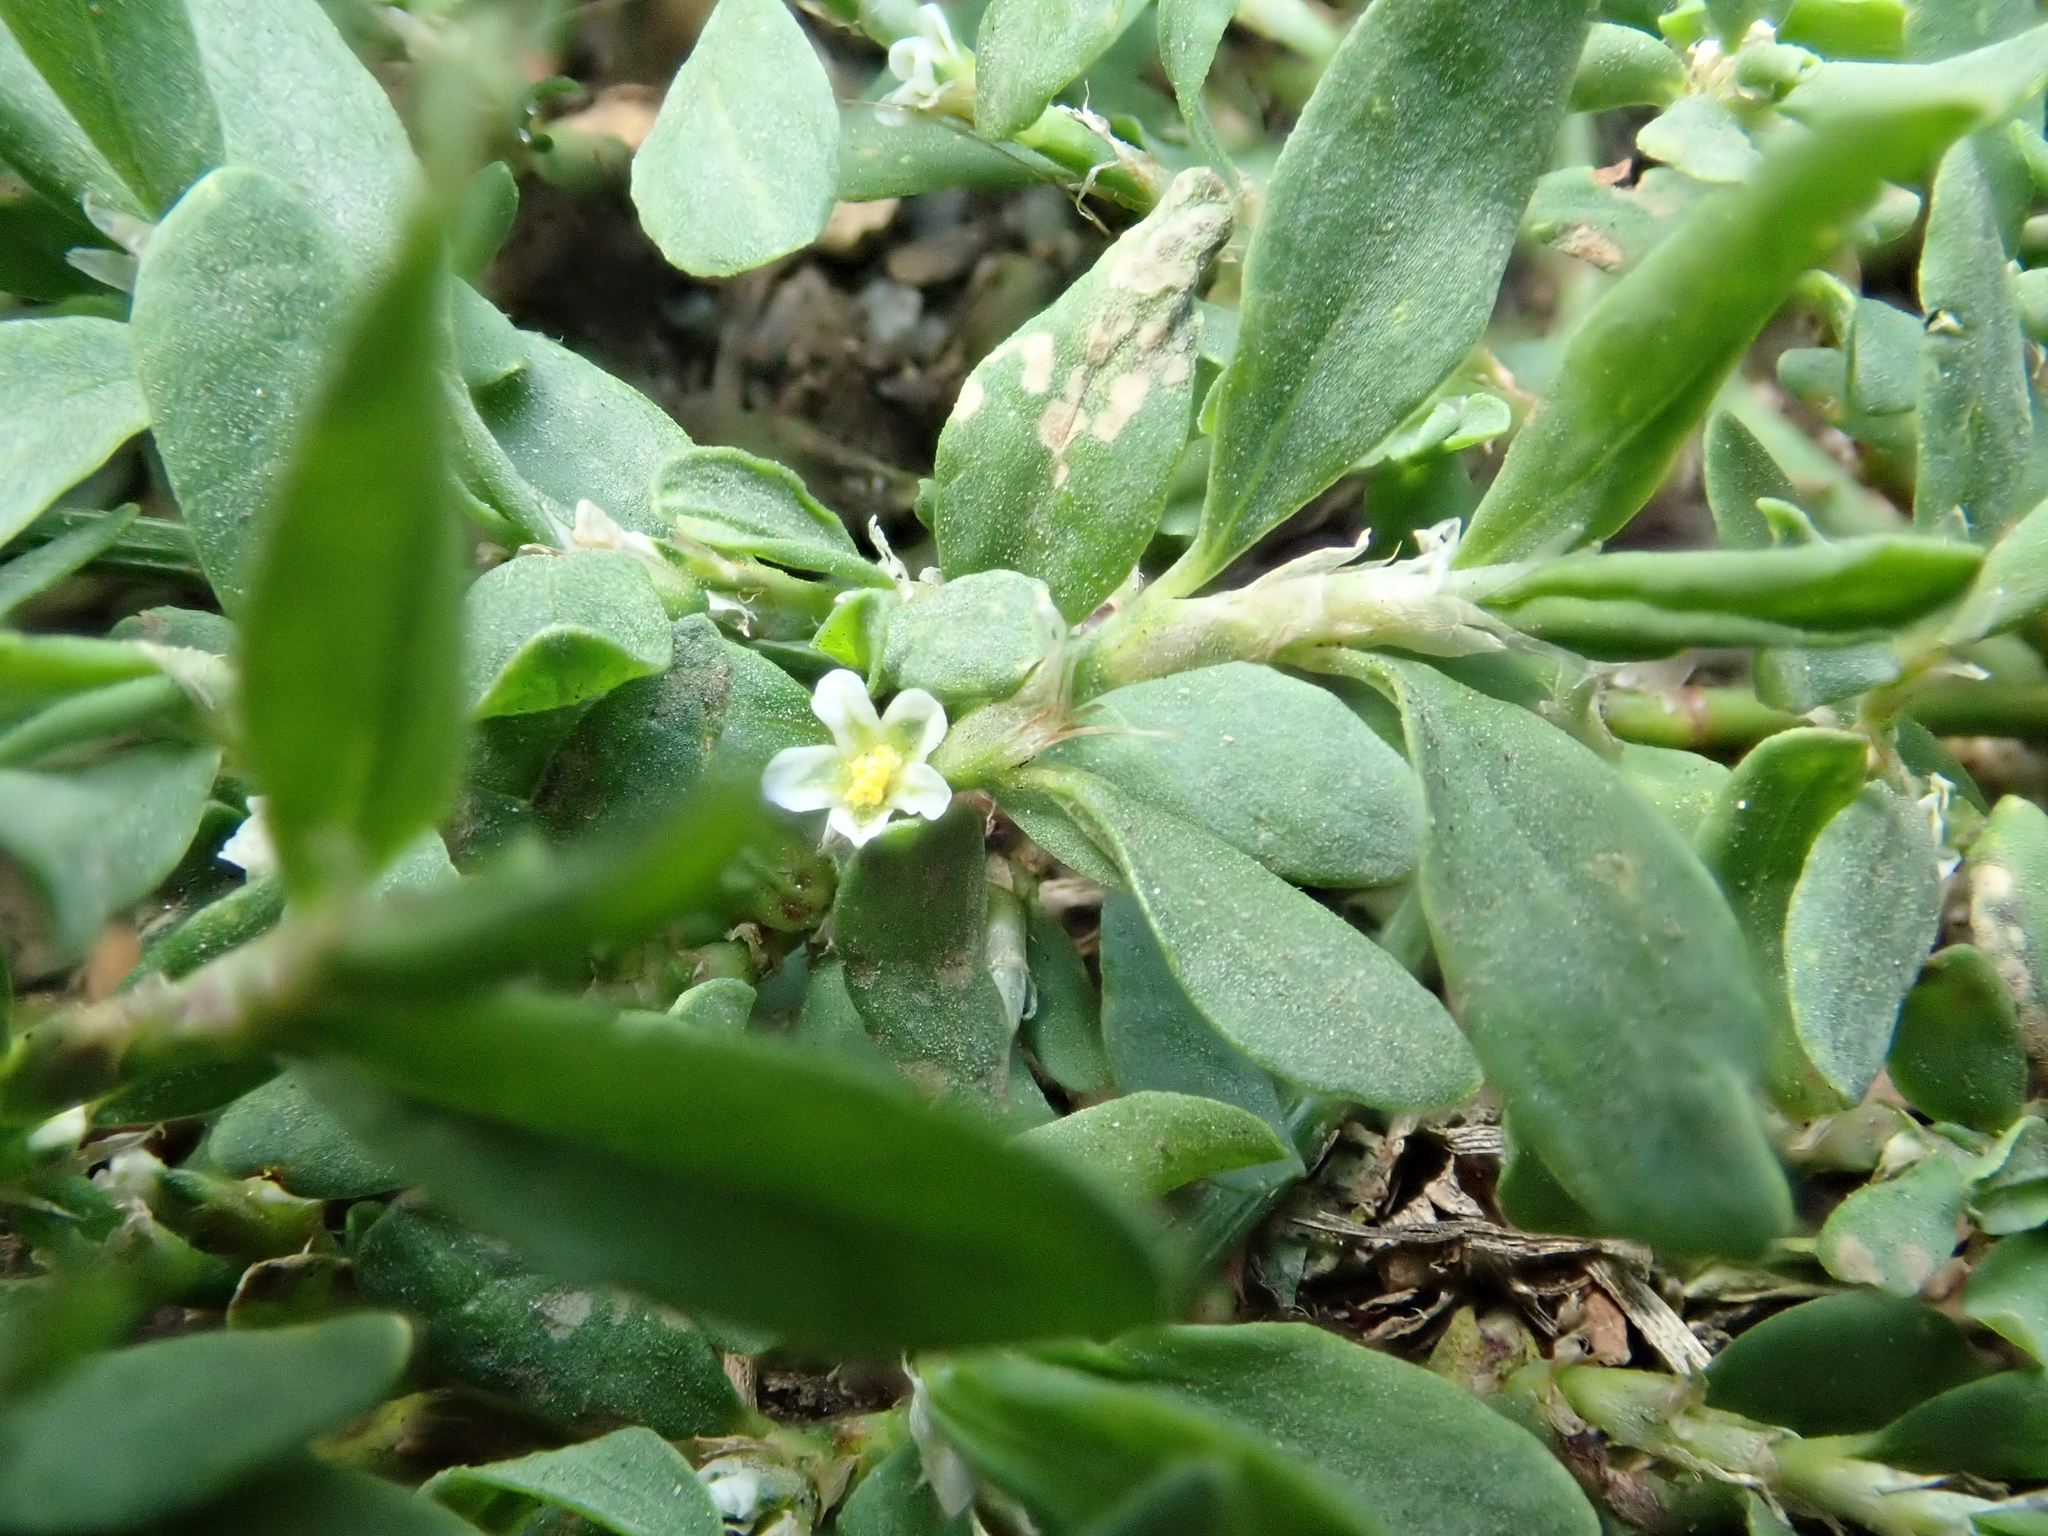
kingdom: Plantae
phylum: Tracheophyta
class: Magnoliopsida
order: Caryophyllales
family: Polygonaceae
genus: Polygonum
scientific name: Polygonum aviculare
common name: Prostrate knotweed
